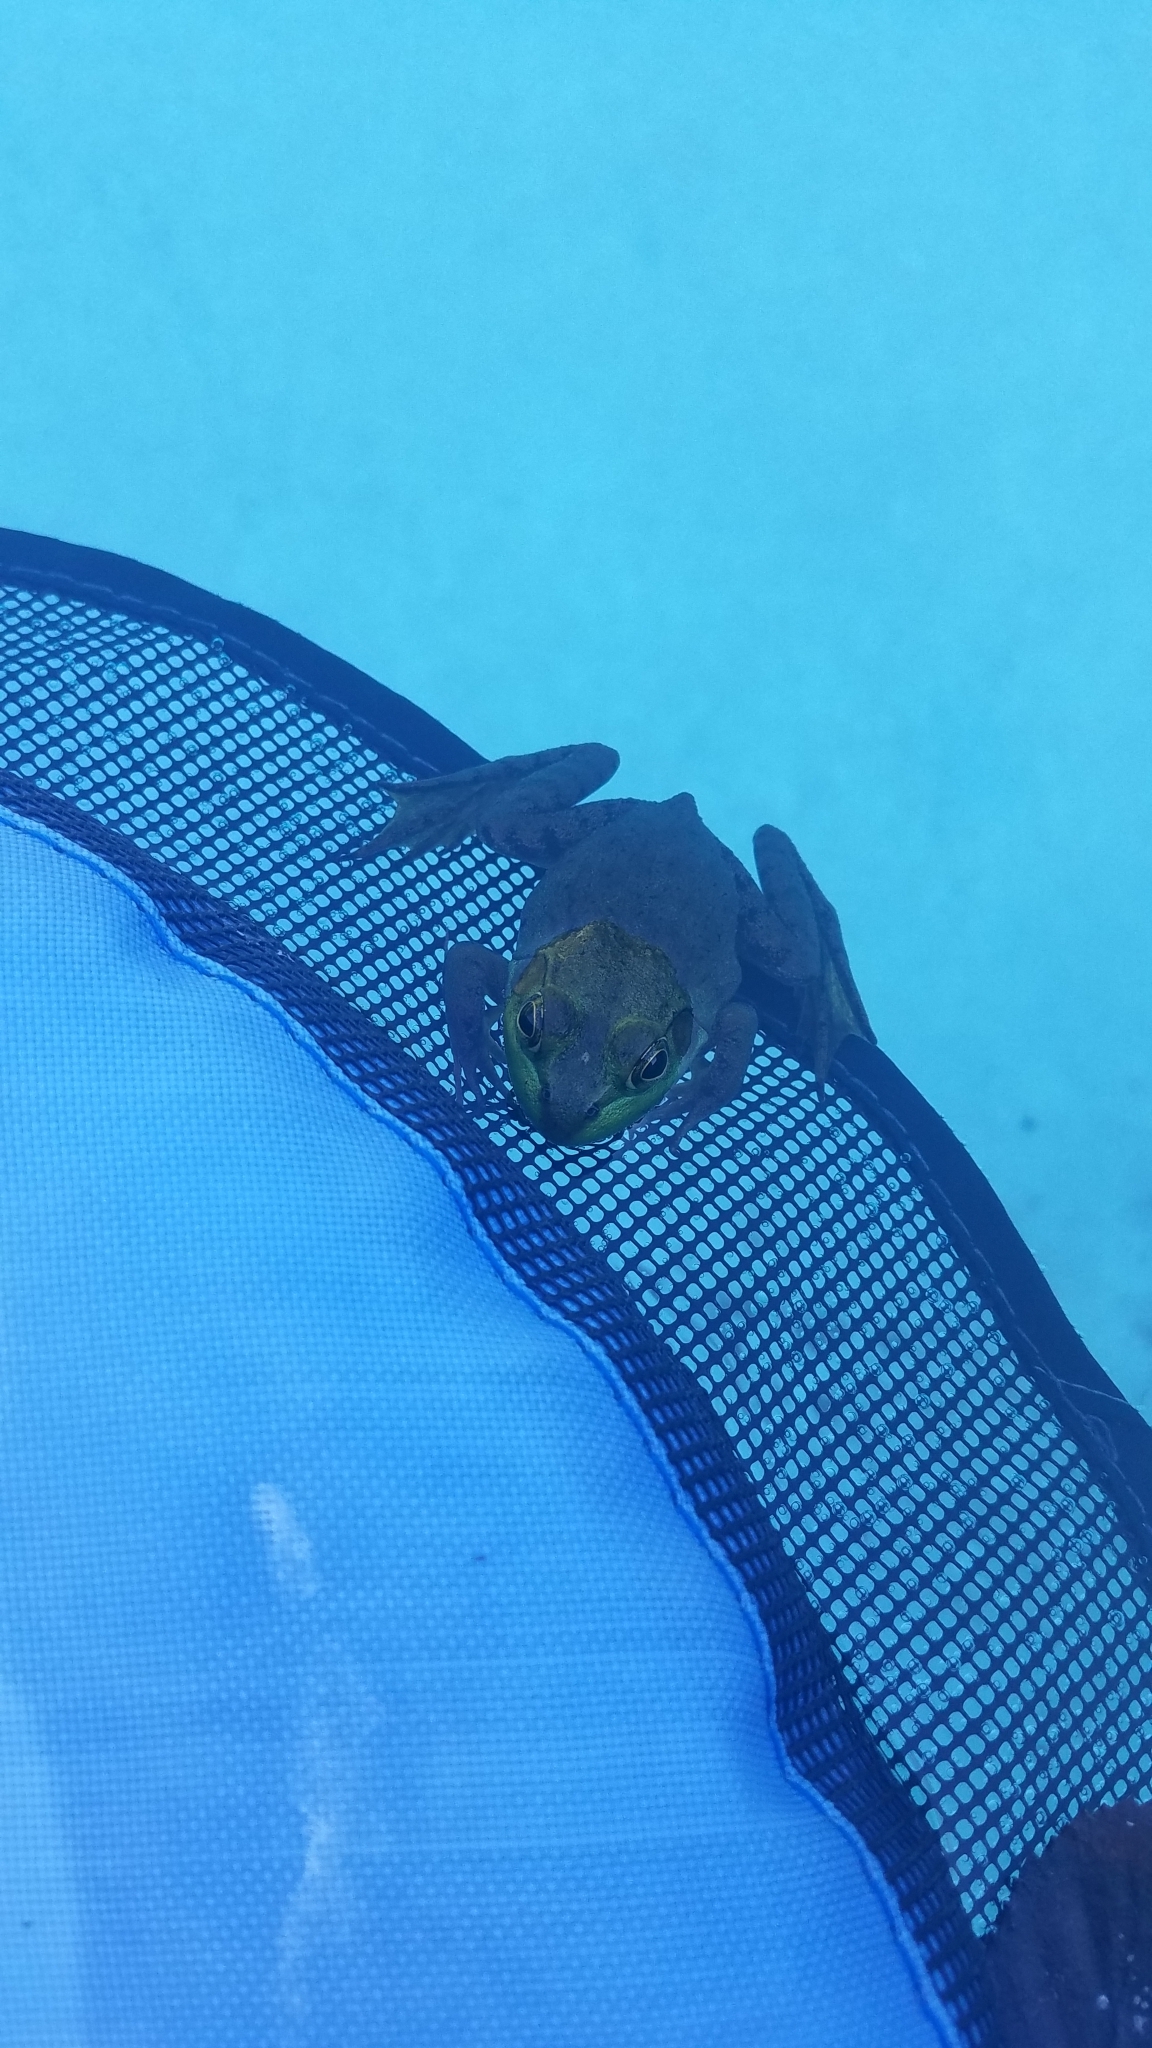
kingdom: Animalia
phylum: Chordata
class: Amphibia
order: Anura
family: Ranidae
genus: Lithobates
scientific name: Lithobates catesbeianus
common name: American bullfrog
